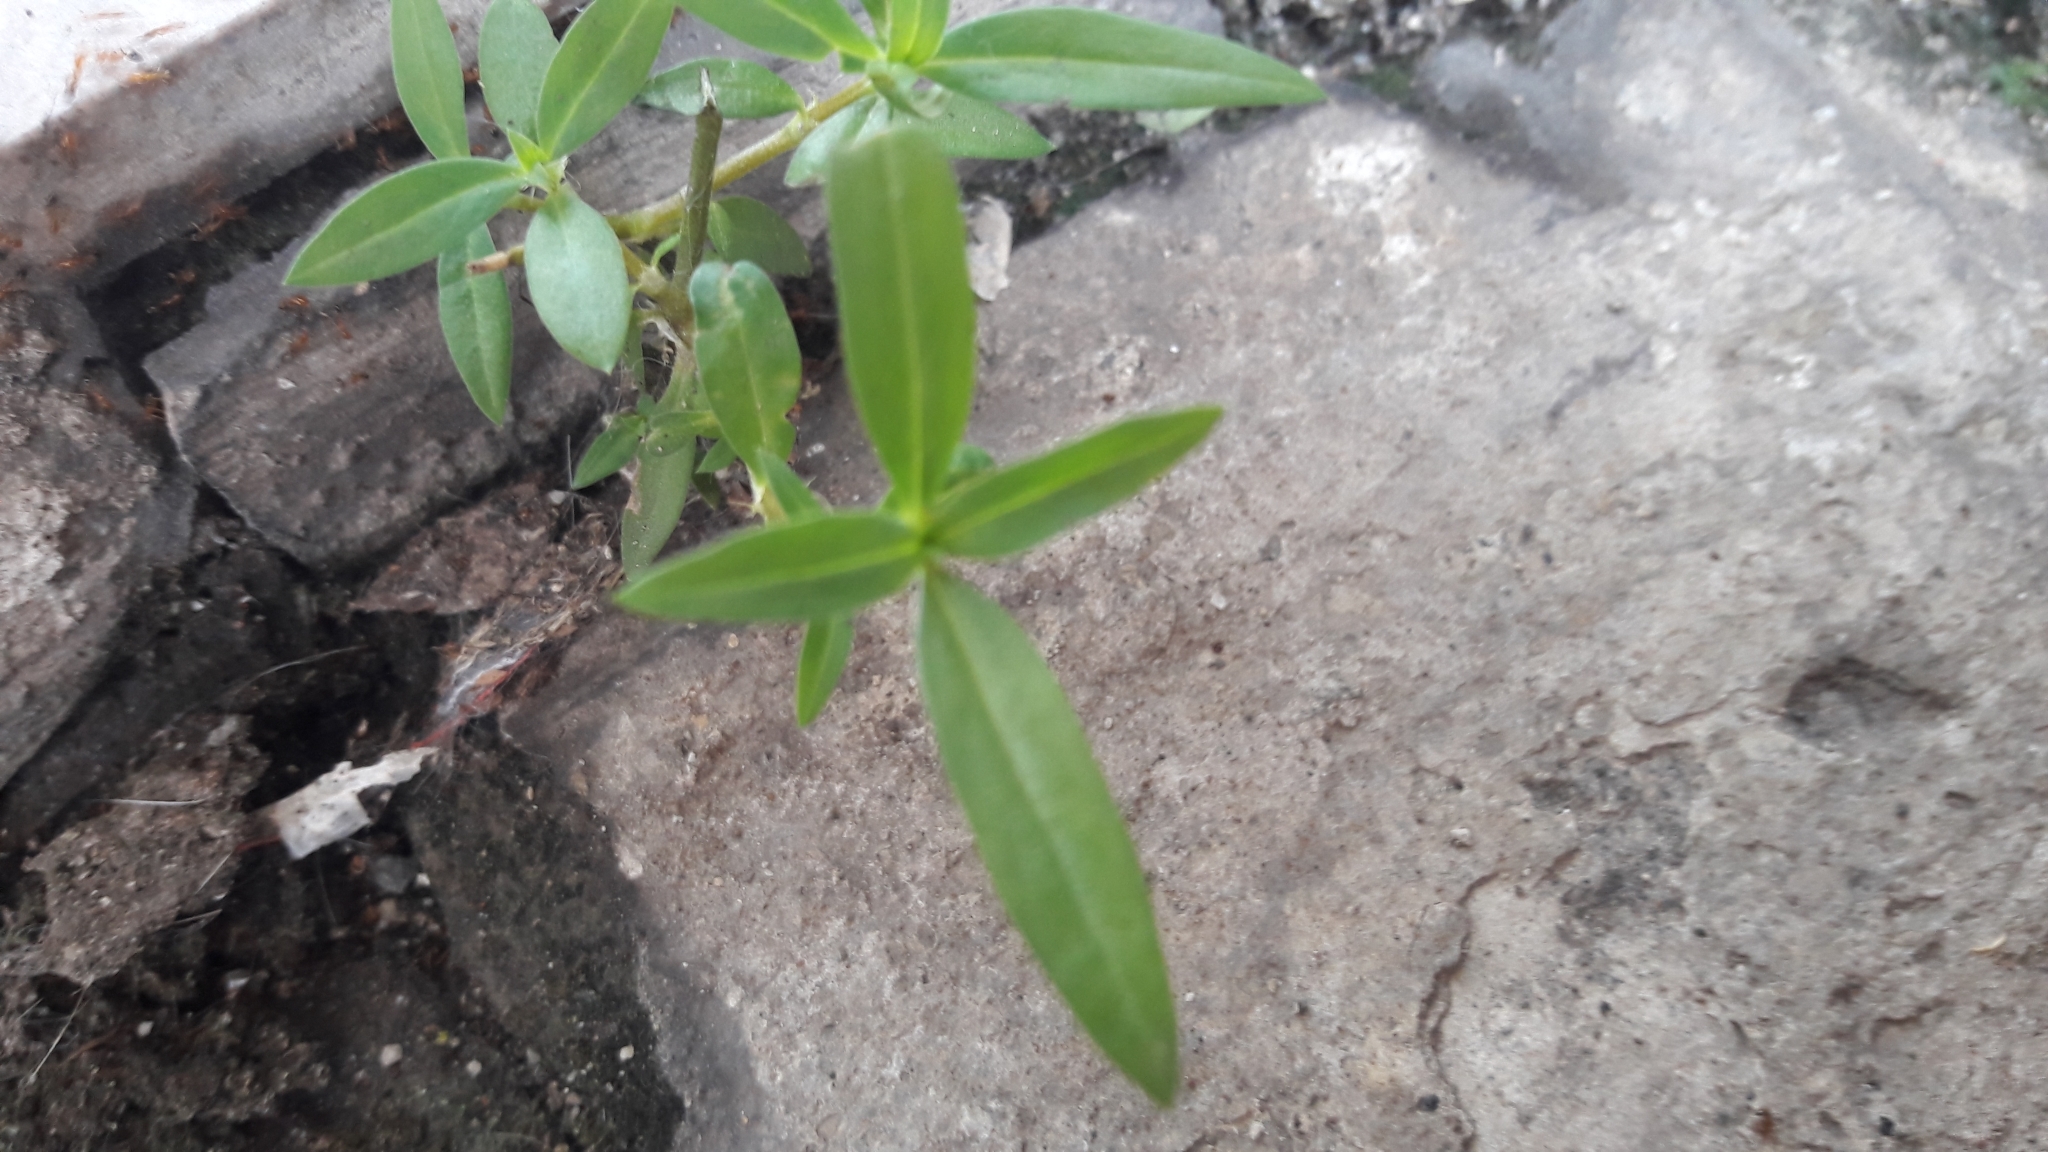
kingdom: Plantae
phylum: Tracheophyta
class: Magnoliopsida
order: Gentianales
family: Rubiaceae
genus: Oldenlandia
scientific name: Oldenlandia corymbosa
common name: Flat-top mille graines
